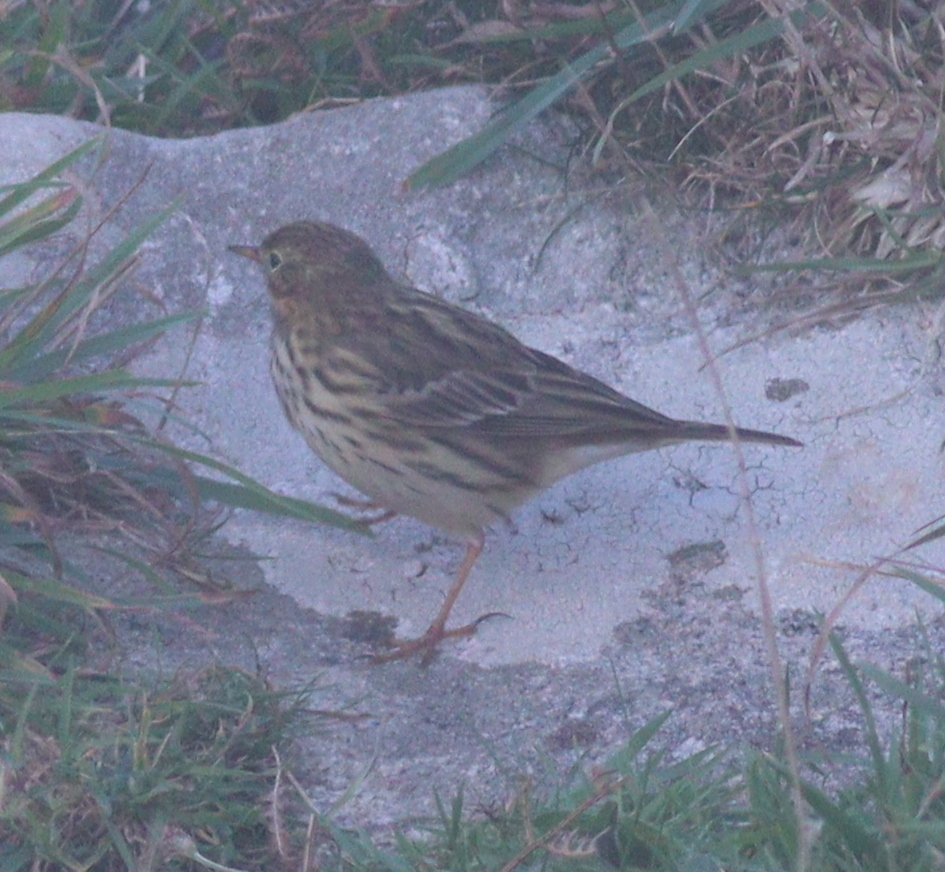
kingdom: Animalia
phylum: Chordata
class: Aves
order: Passeriformes
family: Motacillidae
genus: Anthus
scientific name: Anthus pratensis
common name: Meadow pipit
